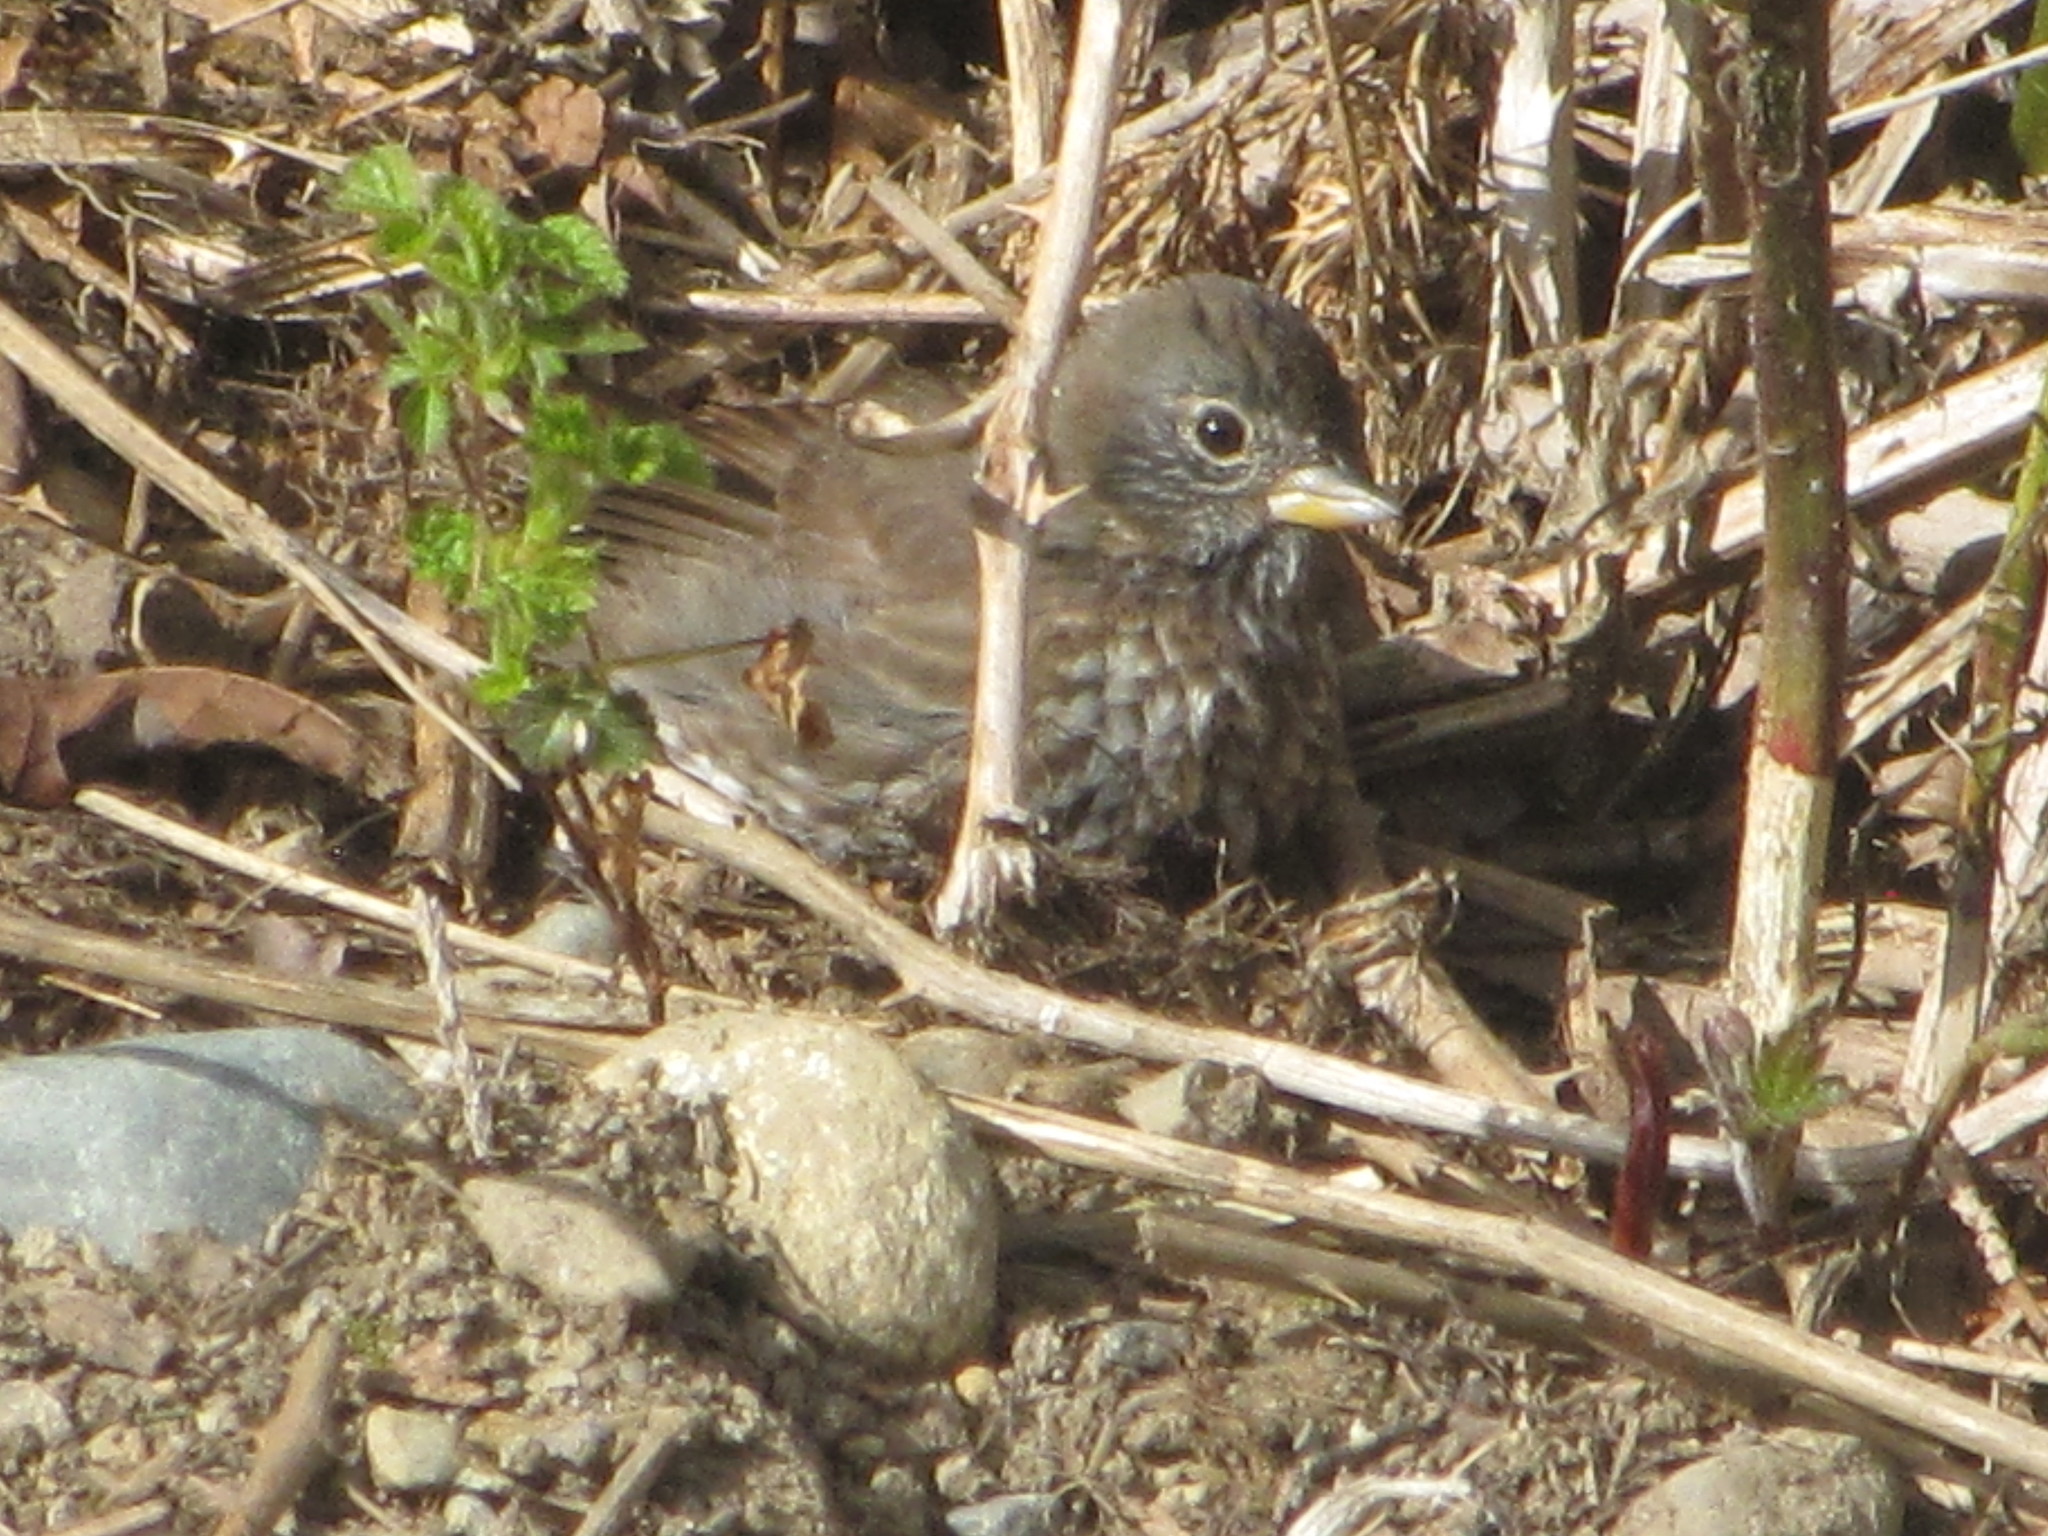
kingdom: Animalia
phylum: Chordata
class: Aves
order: Passeriformes
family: Passerellidae
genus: Passerella
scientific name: Passerella iliaca
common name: Fox sparrow
